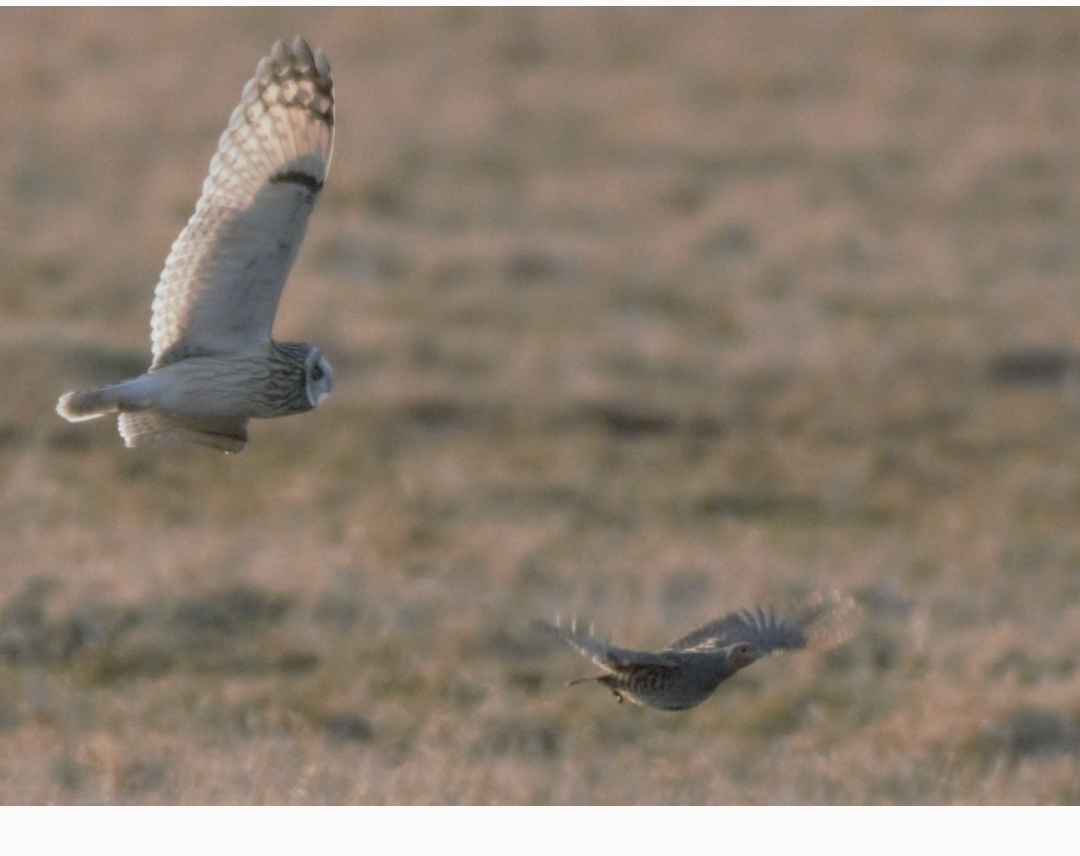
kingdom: Animalia
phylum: Chordata
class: Aves
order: Galliformes
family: Phasianidae
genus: Perdix
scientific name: Perdix perdix
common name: Grey partridge
